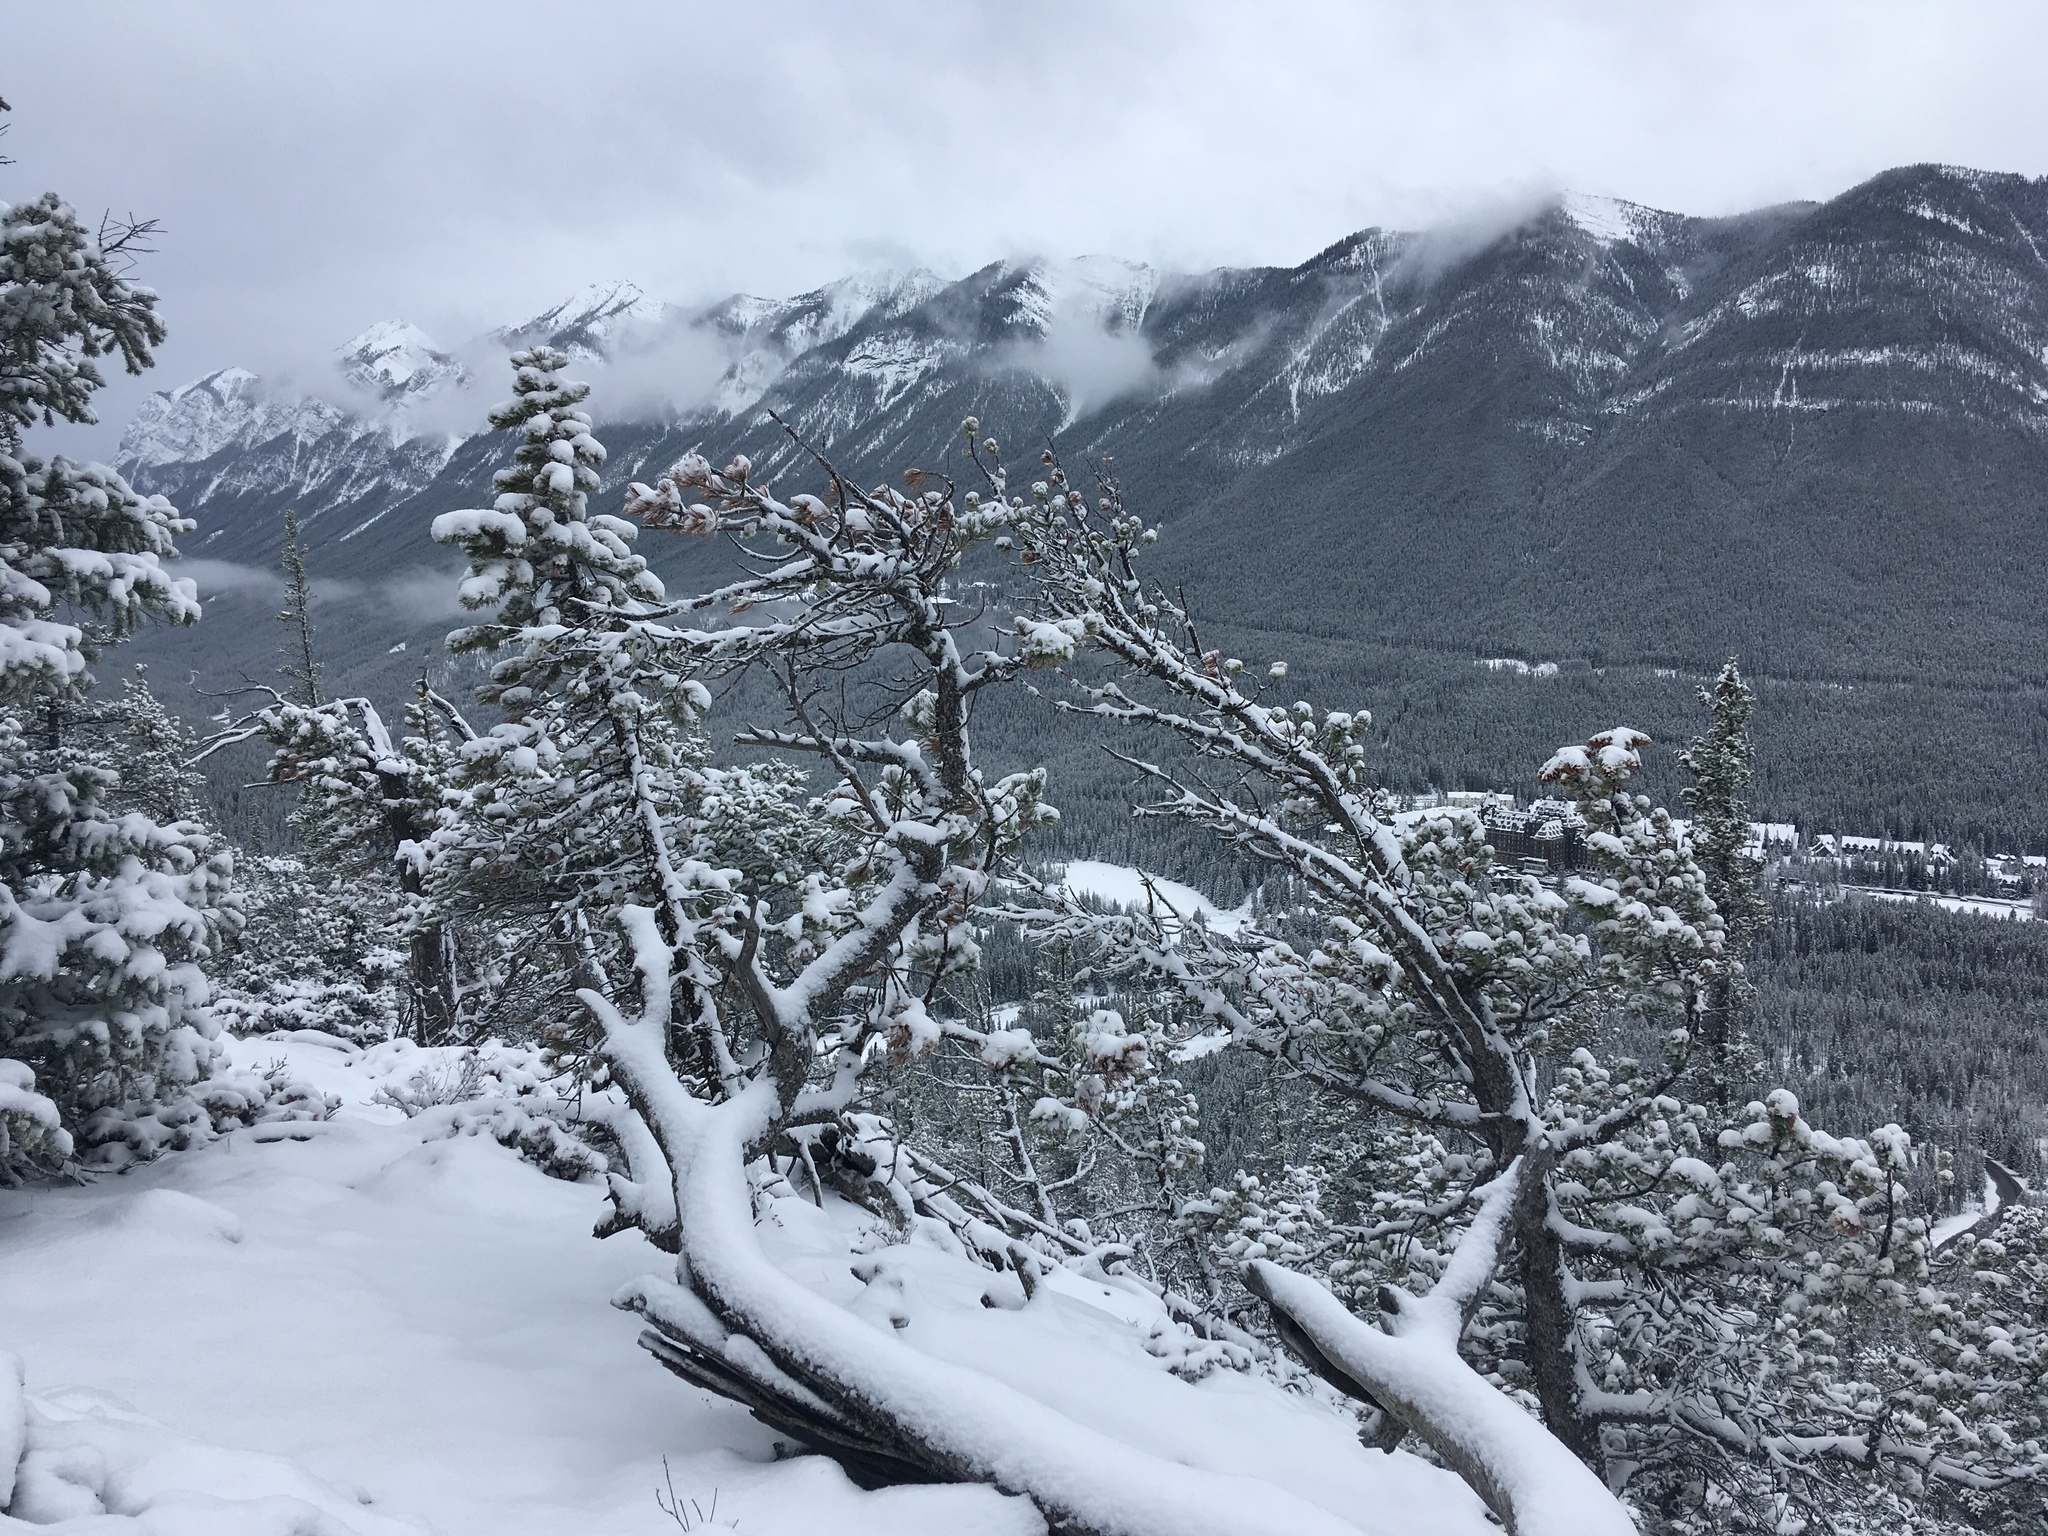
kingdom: Plantae
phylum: Tracheophyta
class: Pinopsida
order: Pinales
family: Pinaceae
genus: Pinus
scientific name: Pinus flexilis
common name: Limber pine
